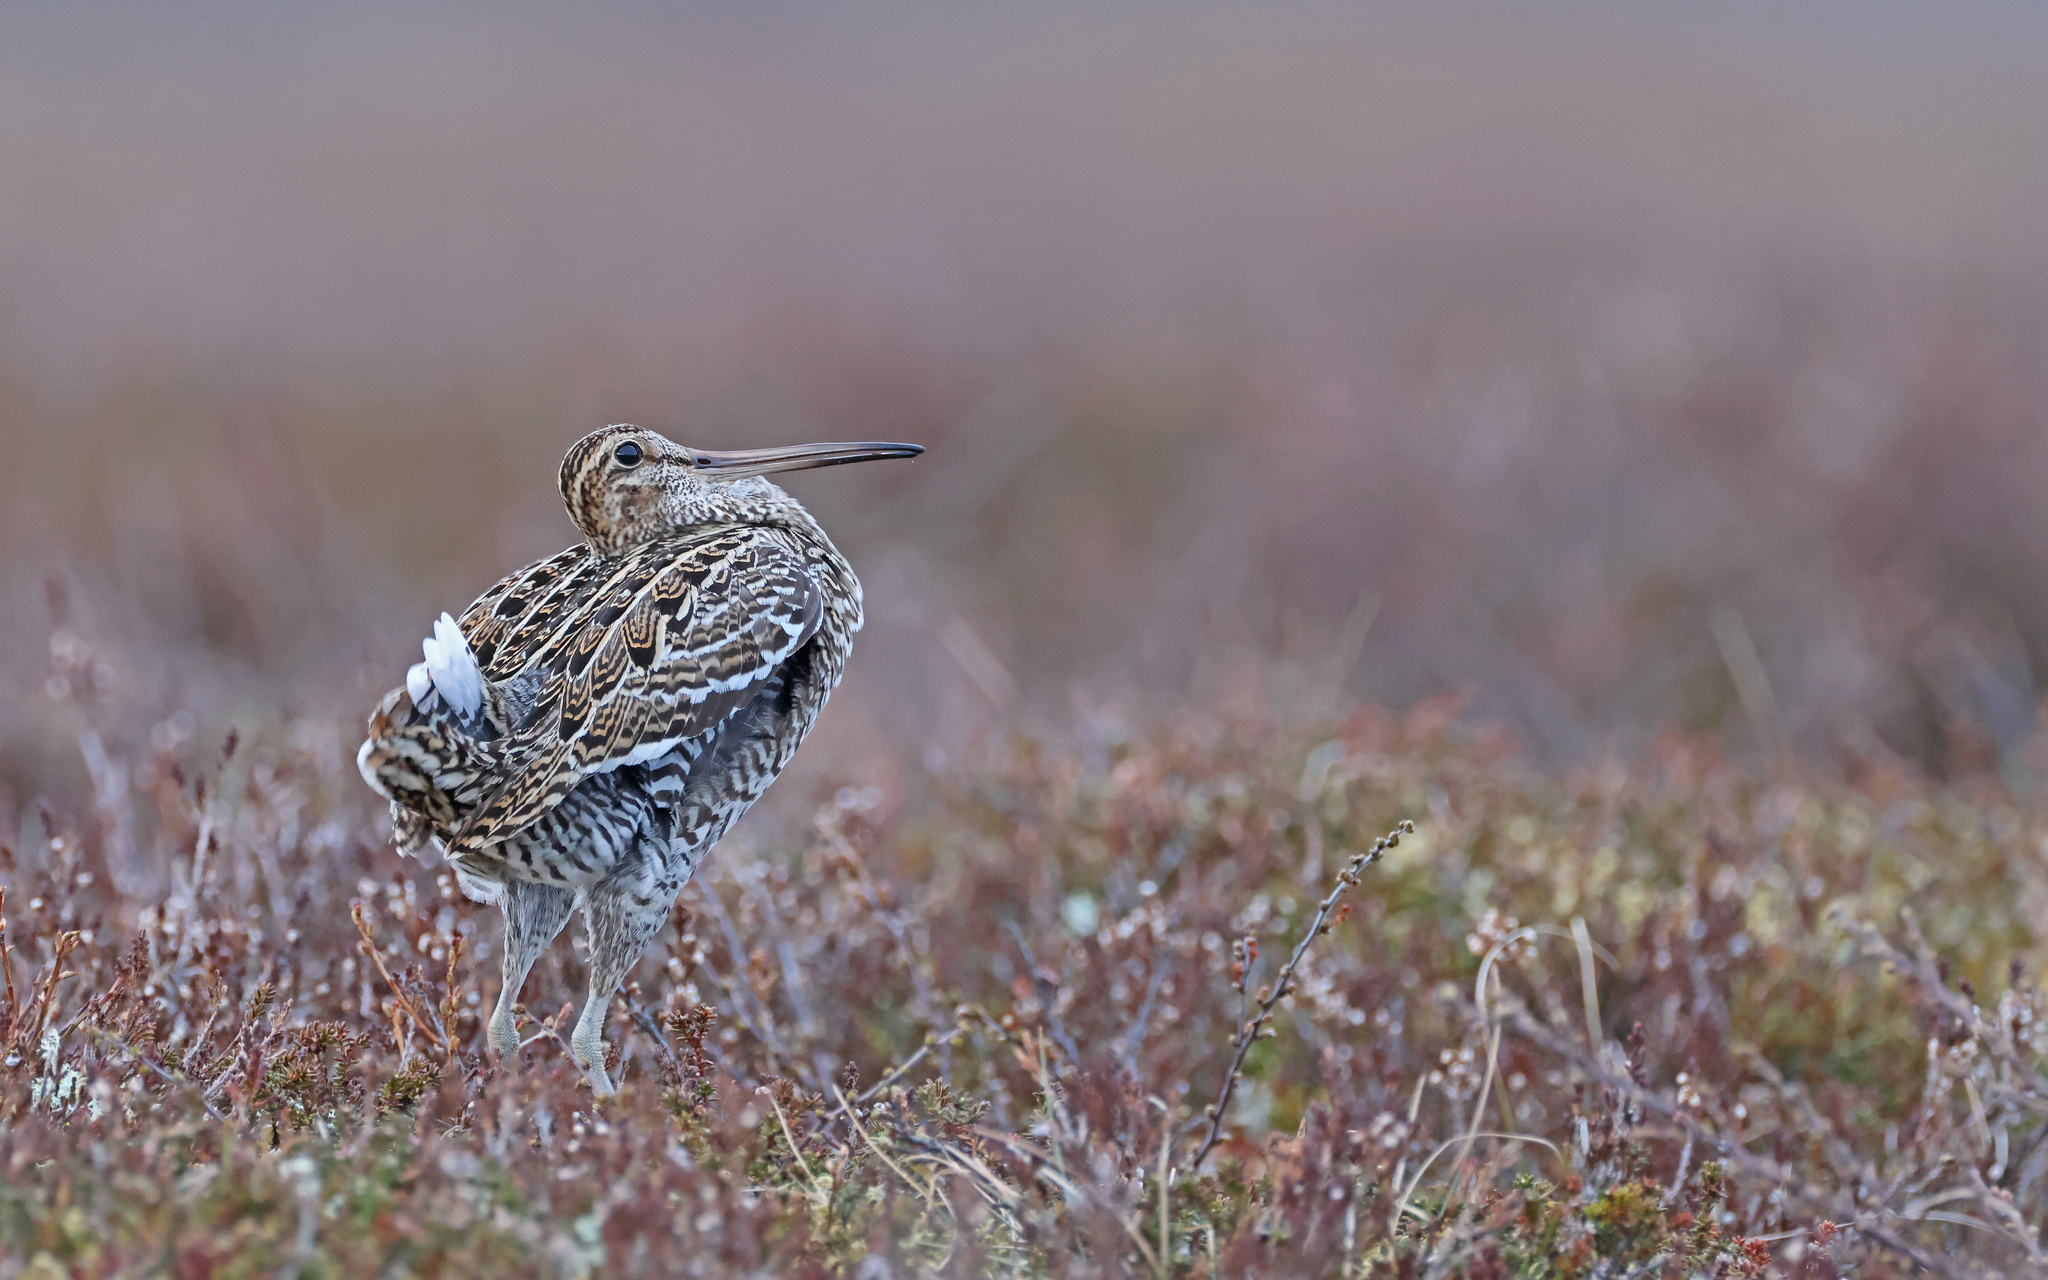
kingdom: Animalia
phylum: Chordata
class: Aves
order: Charadriiformes
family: Scolopacidae
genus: Gallinago
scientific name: Gallinago media
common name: Great snipe
